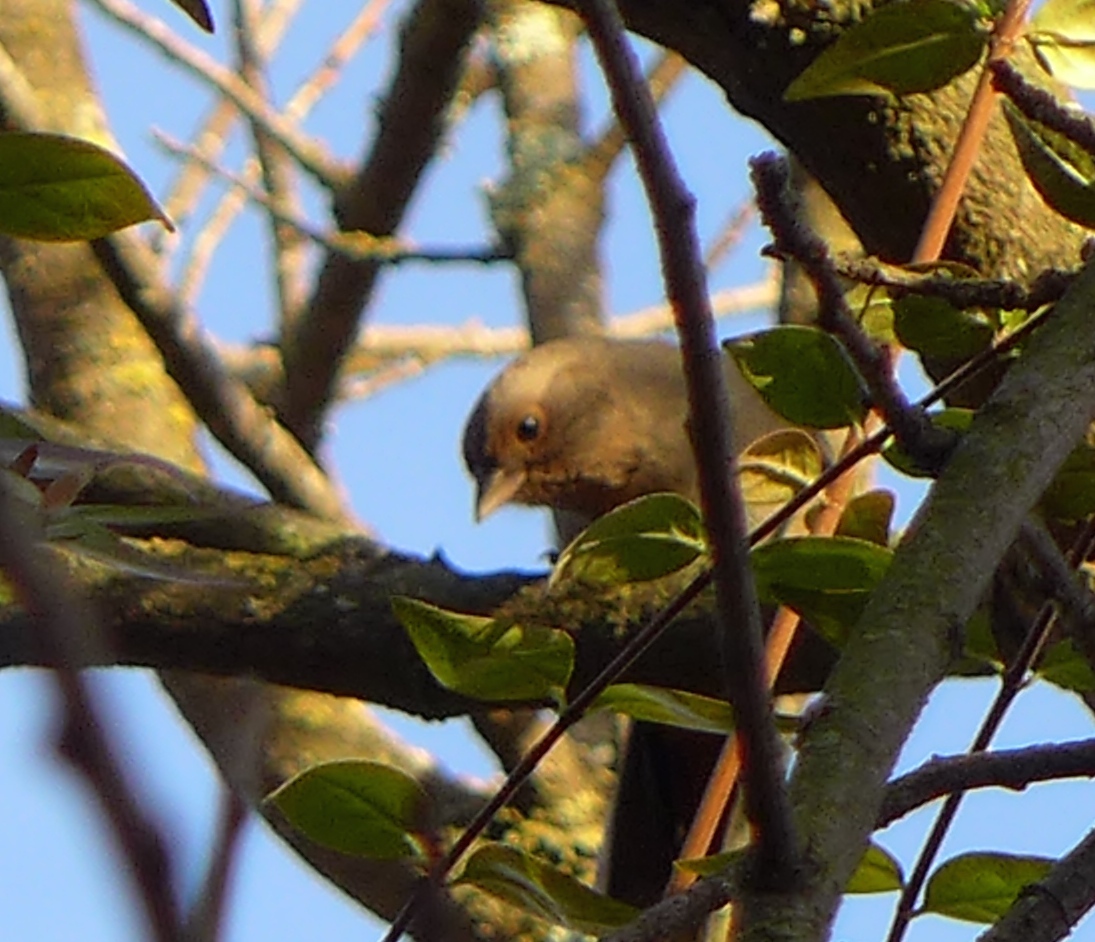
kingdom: Animalia
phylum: Chordata
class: Aves
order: Passeriformes
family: Passerellidae
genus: Melozone
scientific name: Melozone crissalis
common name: California towhee
